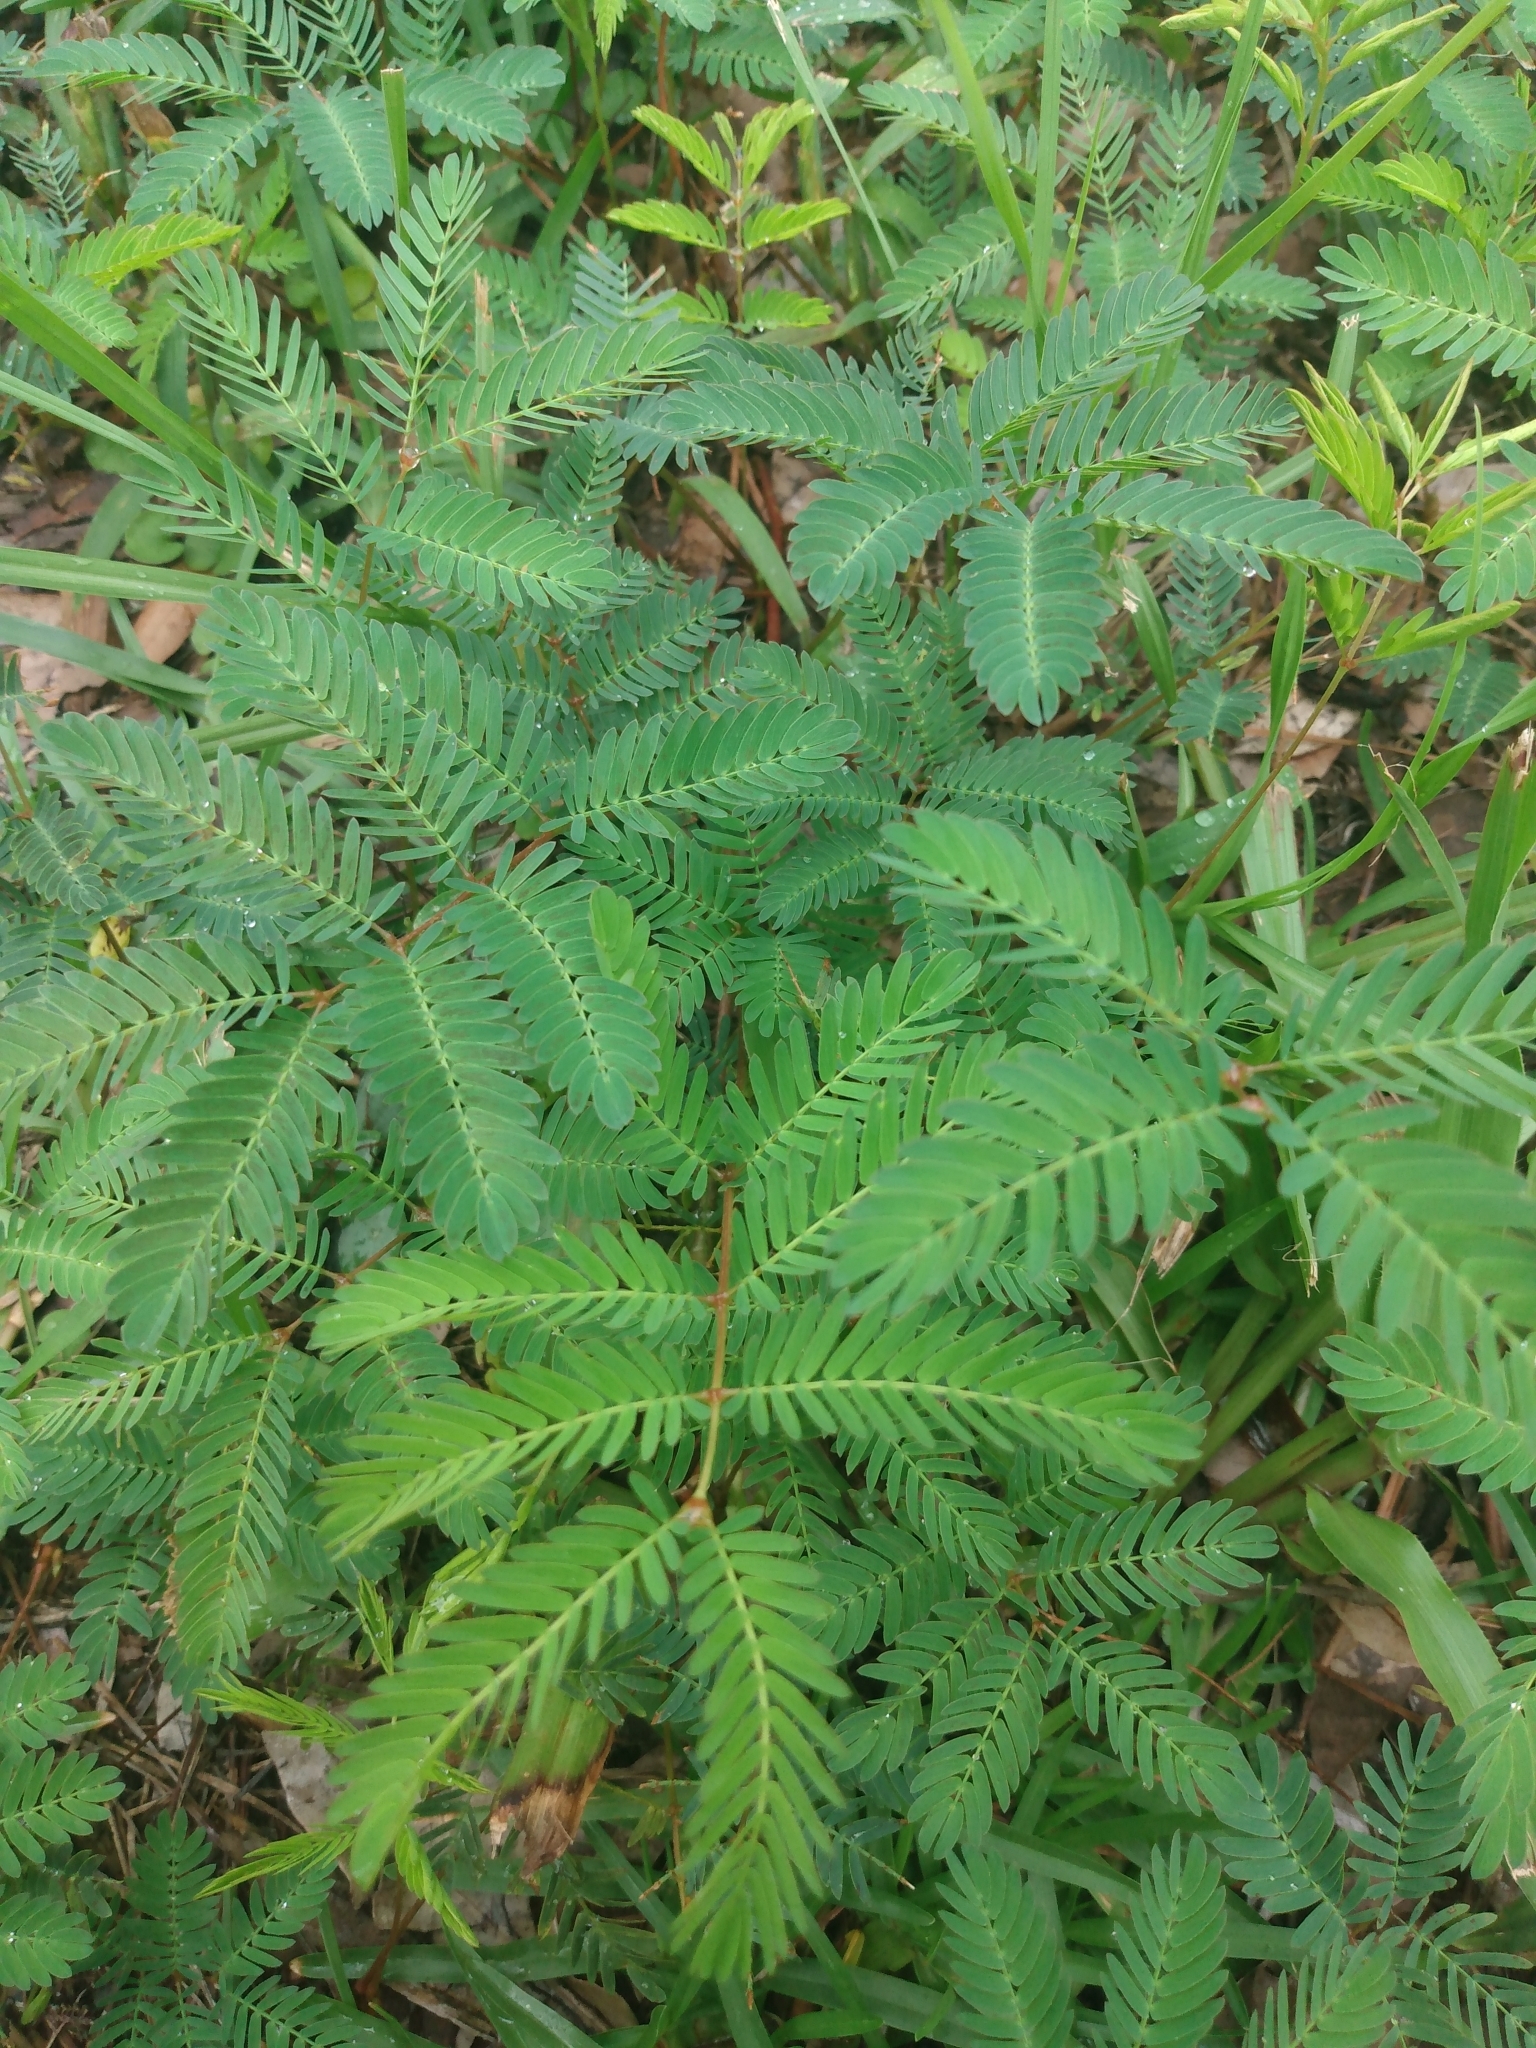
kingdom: Plantae
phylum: Tracheophyta
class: Magnoliopsida
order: Fabales
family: Fabaceae
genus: Mimosa
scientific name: Mimosa strigillosa
